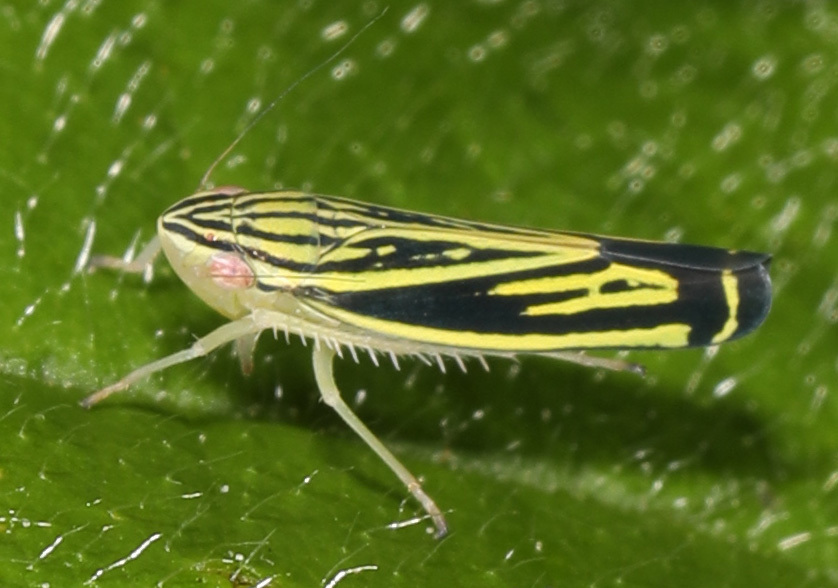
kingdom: Animalia
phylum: Arthropoda
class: Insecta
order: Hemiptera
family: Cicadellidae
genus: Sibovia
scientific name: Sibovia occatoria
